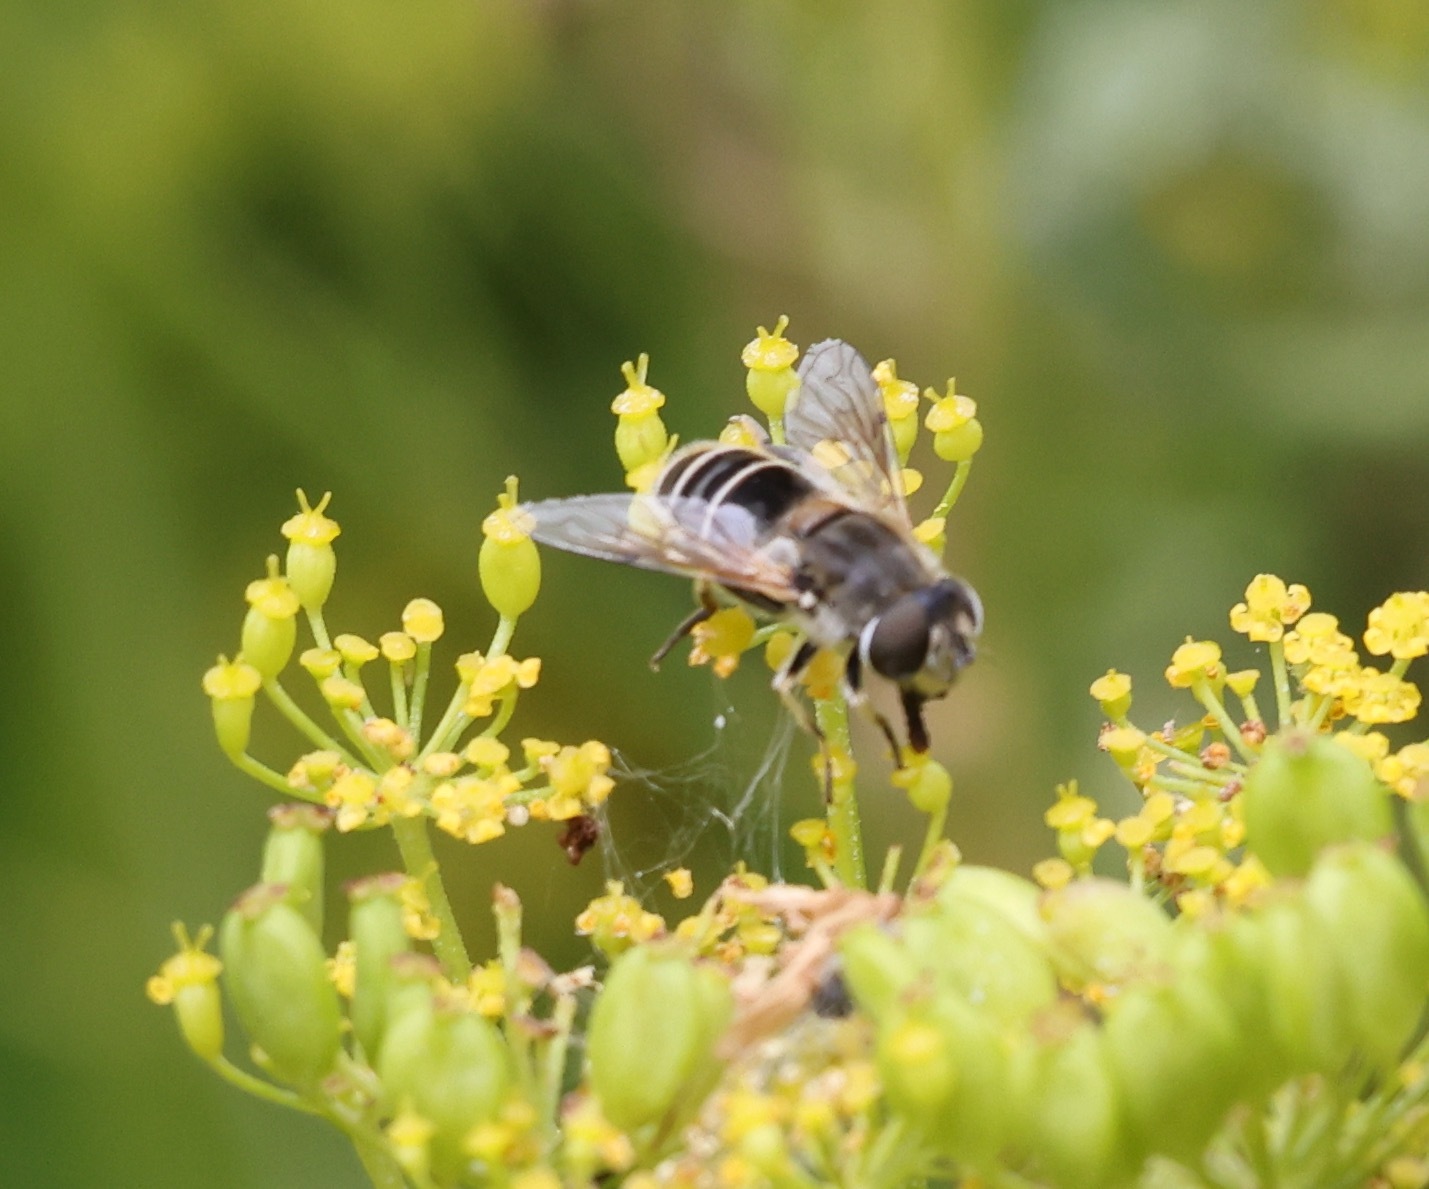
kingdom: Animalia
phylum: Arthropoda
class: Insecta
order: Diptera
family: Syrphidae
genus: Eristalis
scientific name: Eristalis arbustorum
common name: Hover fly
